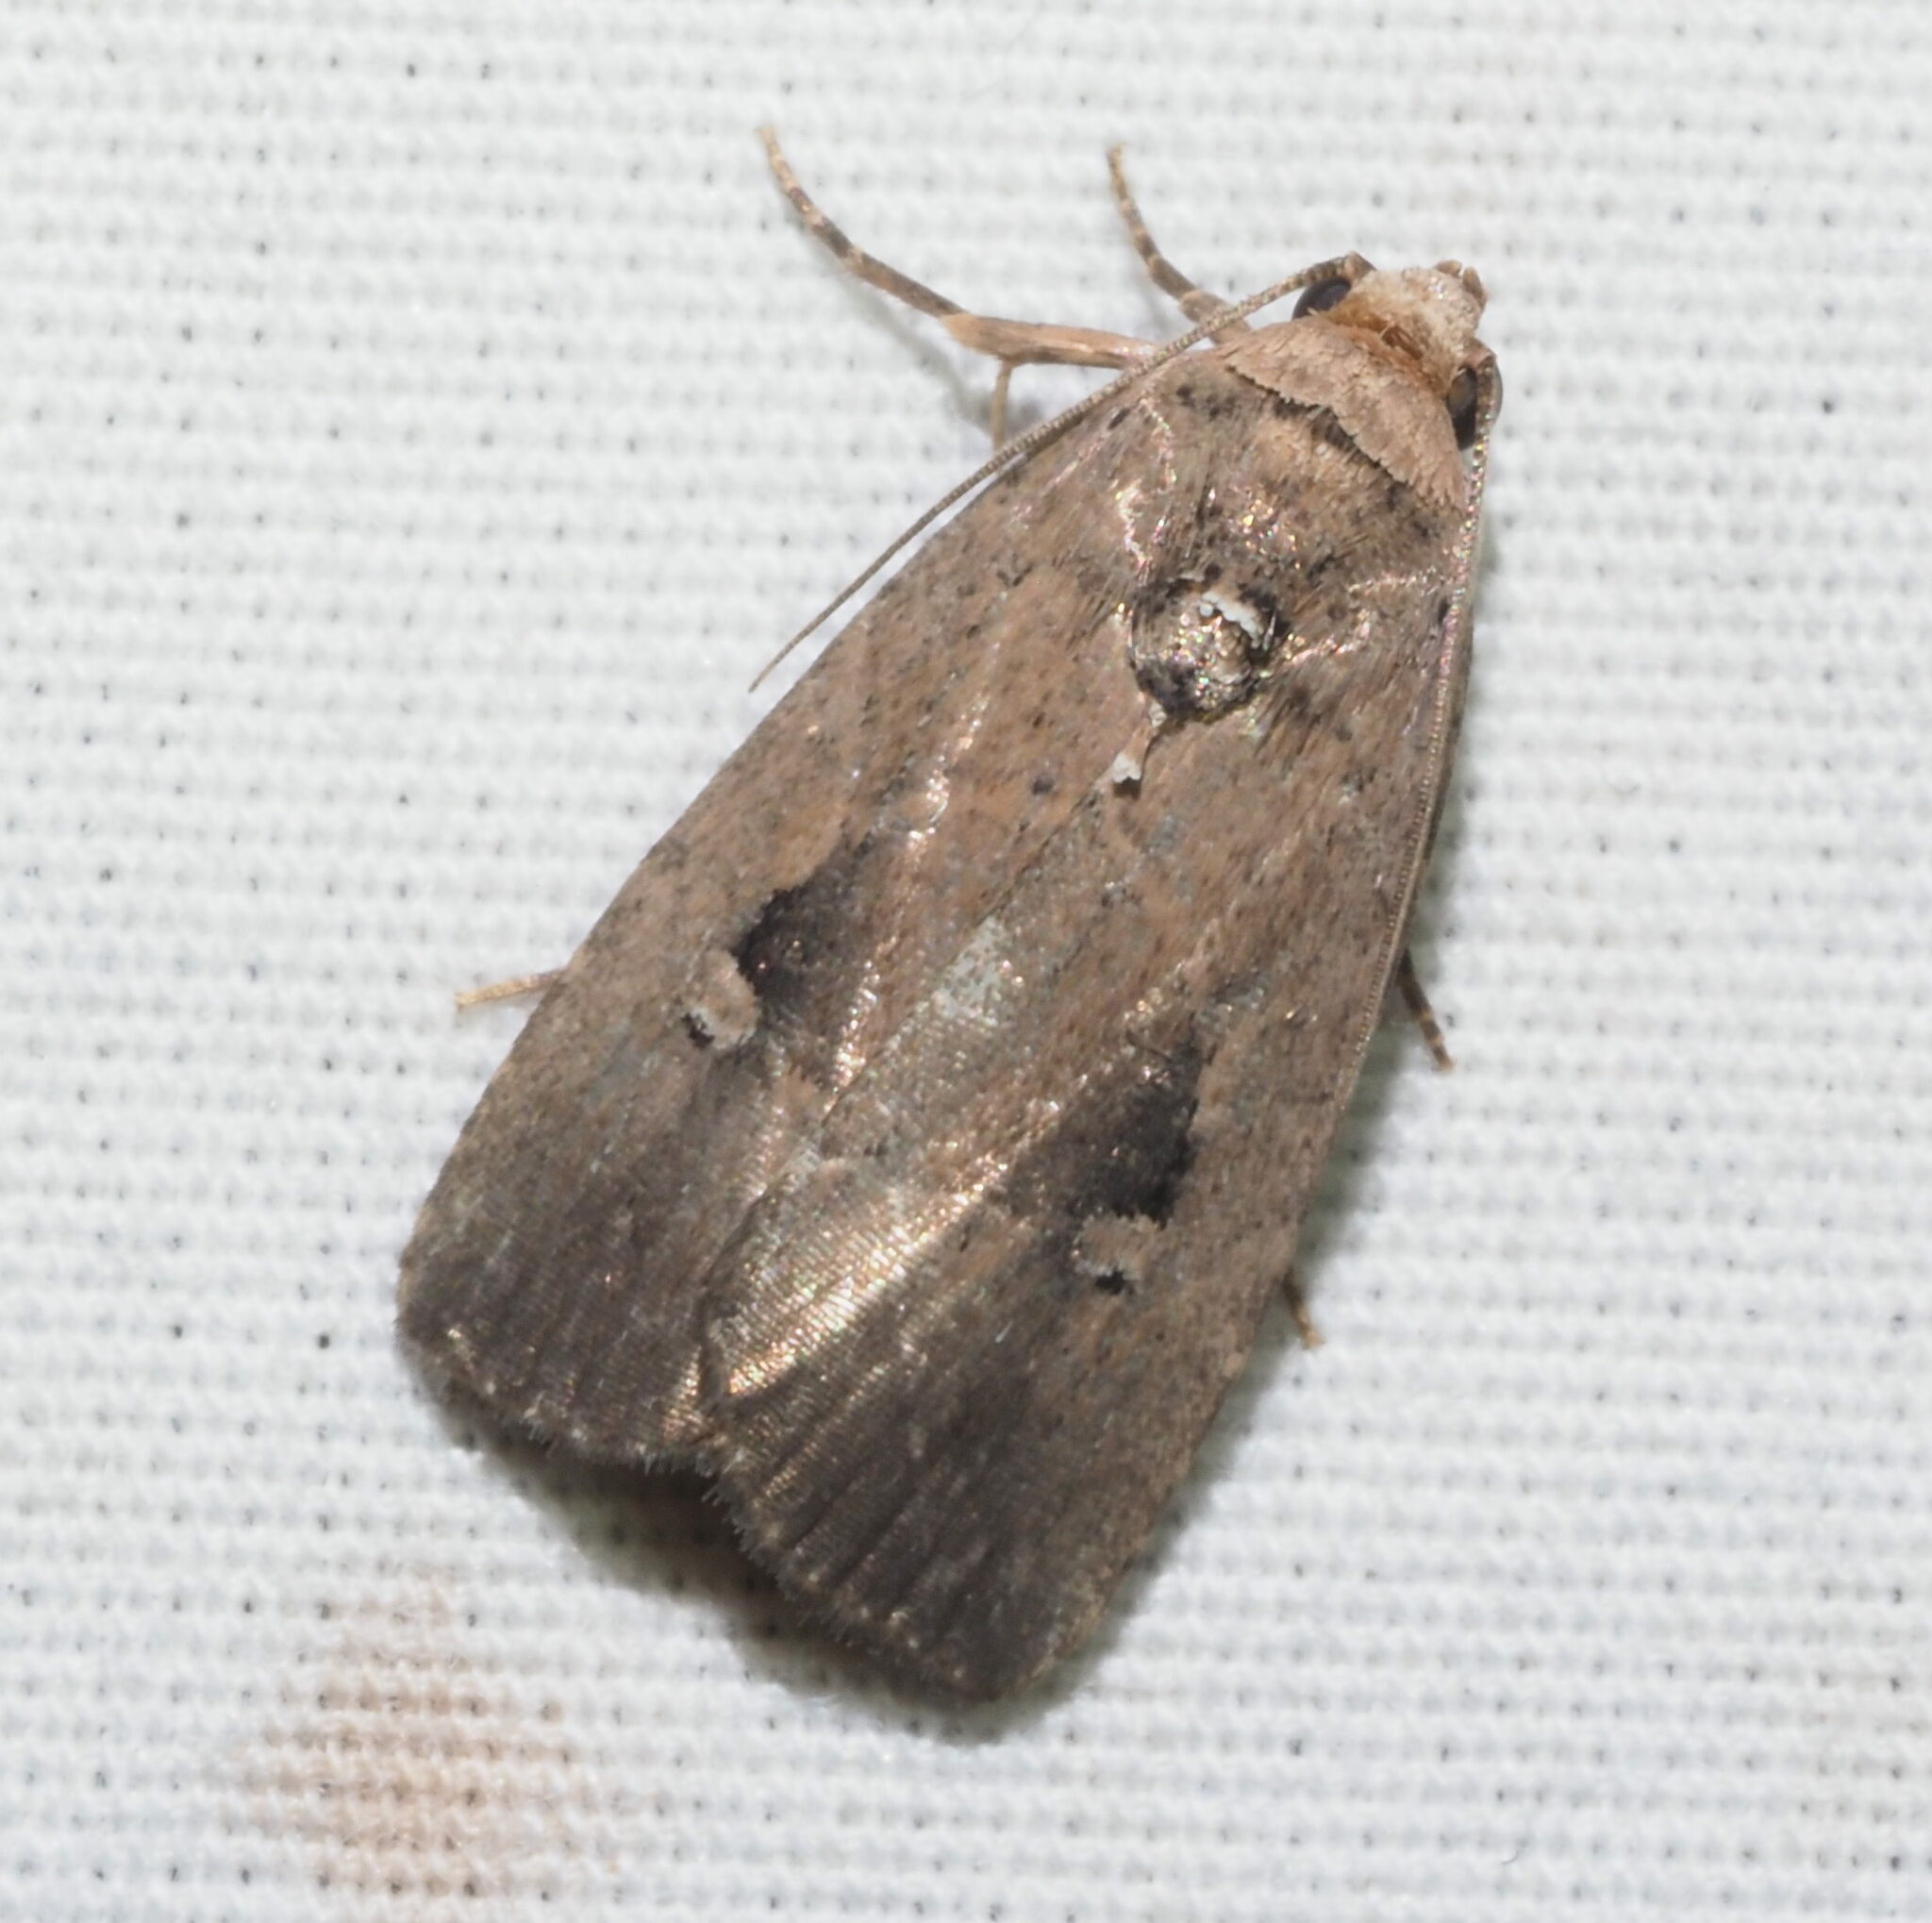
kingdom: Animalia
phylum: Arthropoda
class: Insecta
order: Lepidoptera
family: Noctuidae
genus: Elaphria
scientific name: Elaphria nucicolora
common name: Sugarcane midget moth
